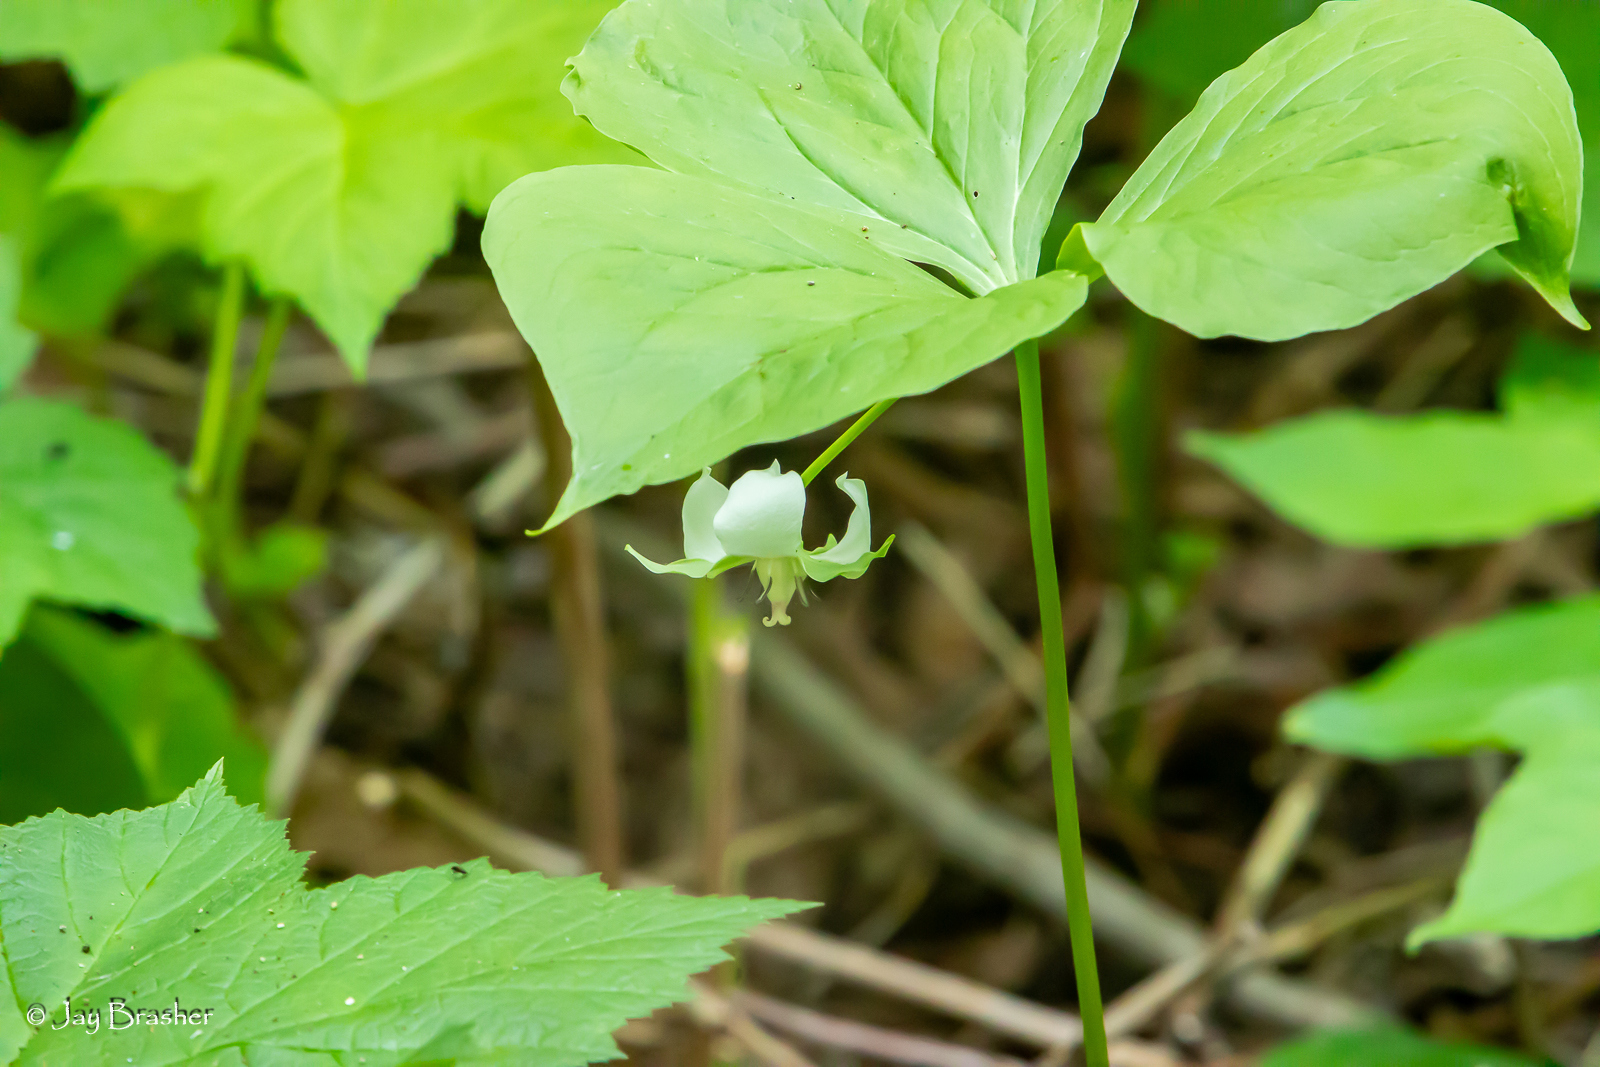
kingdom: Plantae
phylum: Tracheophyta
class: Liliopsida
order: Liliales
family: Melanthiaceae
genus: Trillium
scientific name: Trillium cernuum
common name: Nodding trillium
